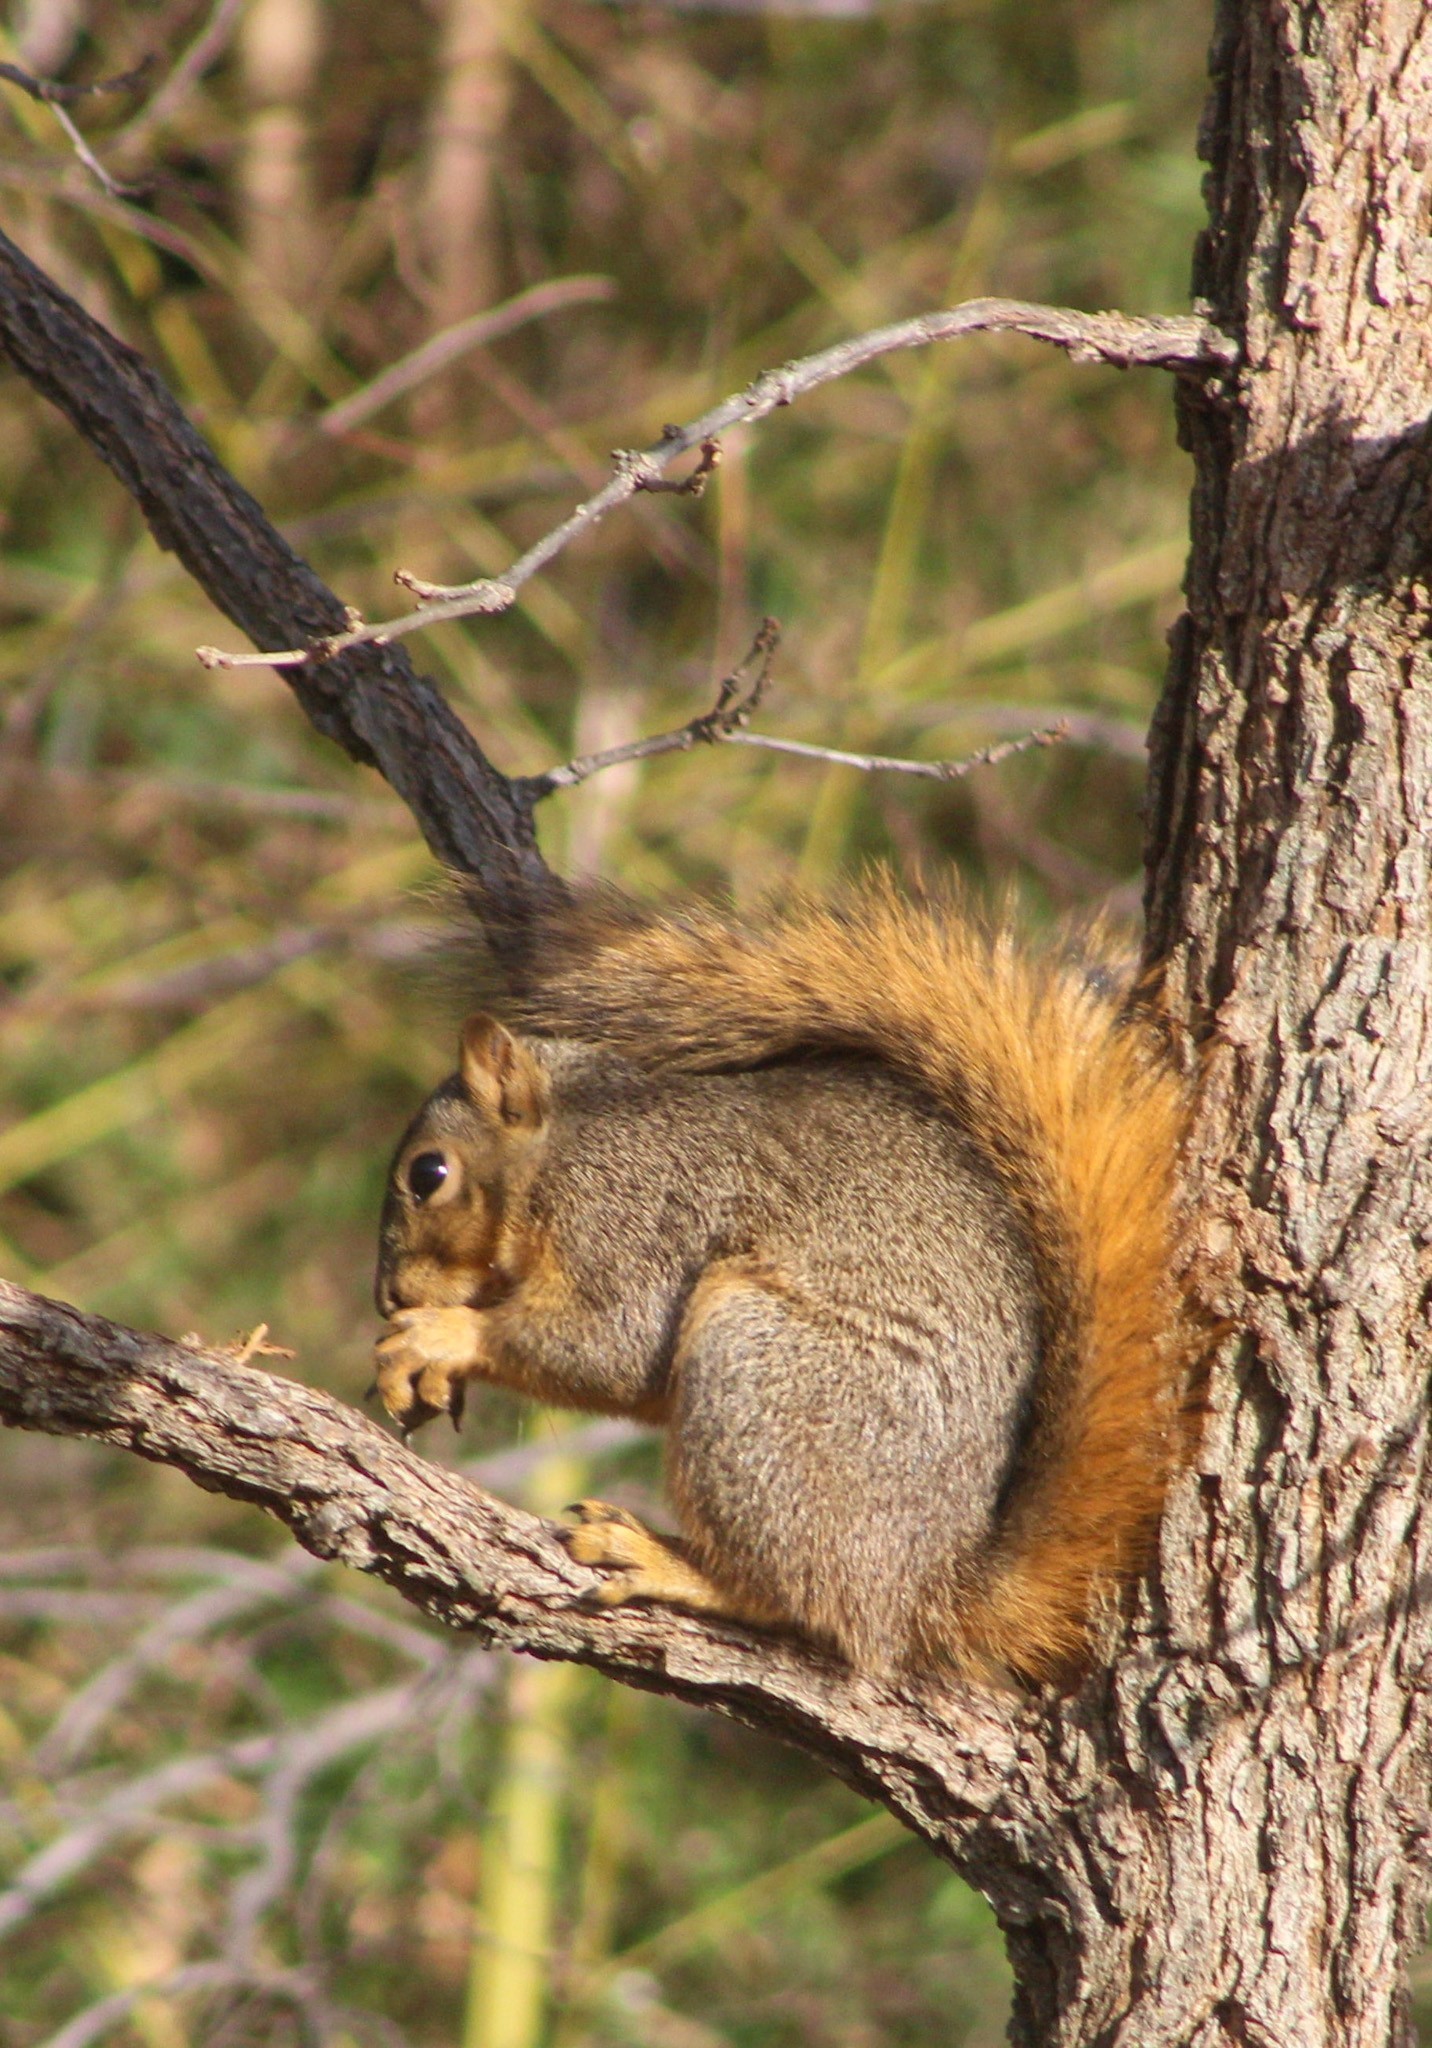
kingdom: Animalia
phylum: Chordata
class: Mammalia
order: Rodentia
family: Sciuridae
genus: Sciurus
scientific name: Sciurus niger
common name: Fox squirrel
